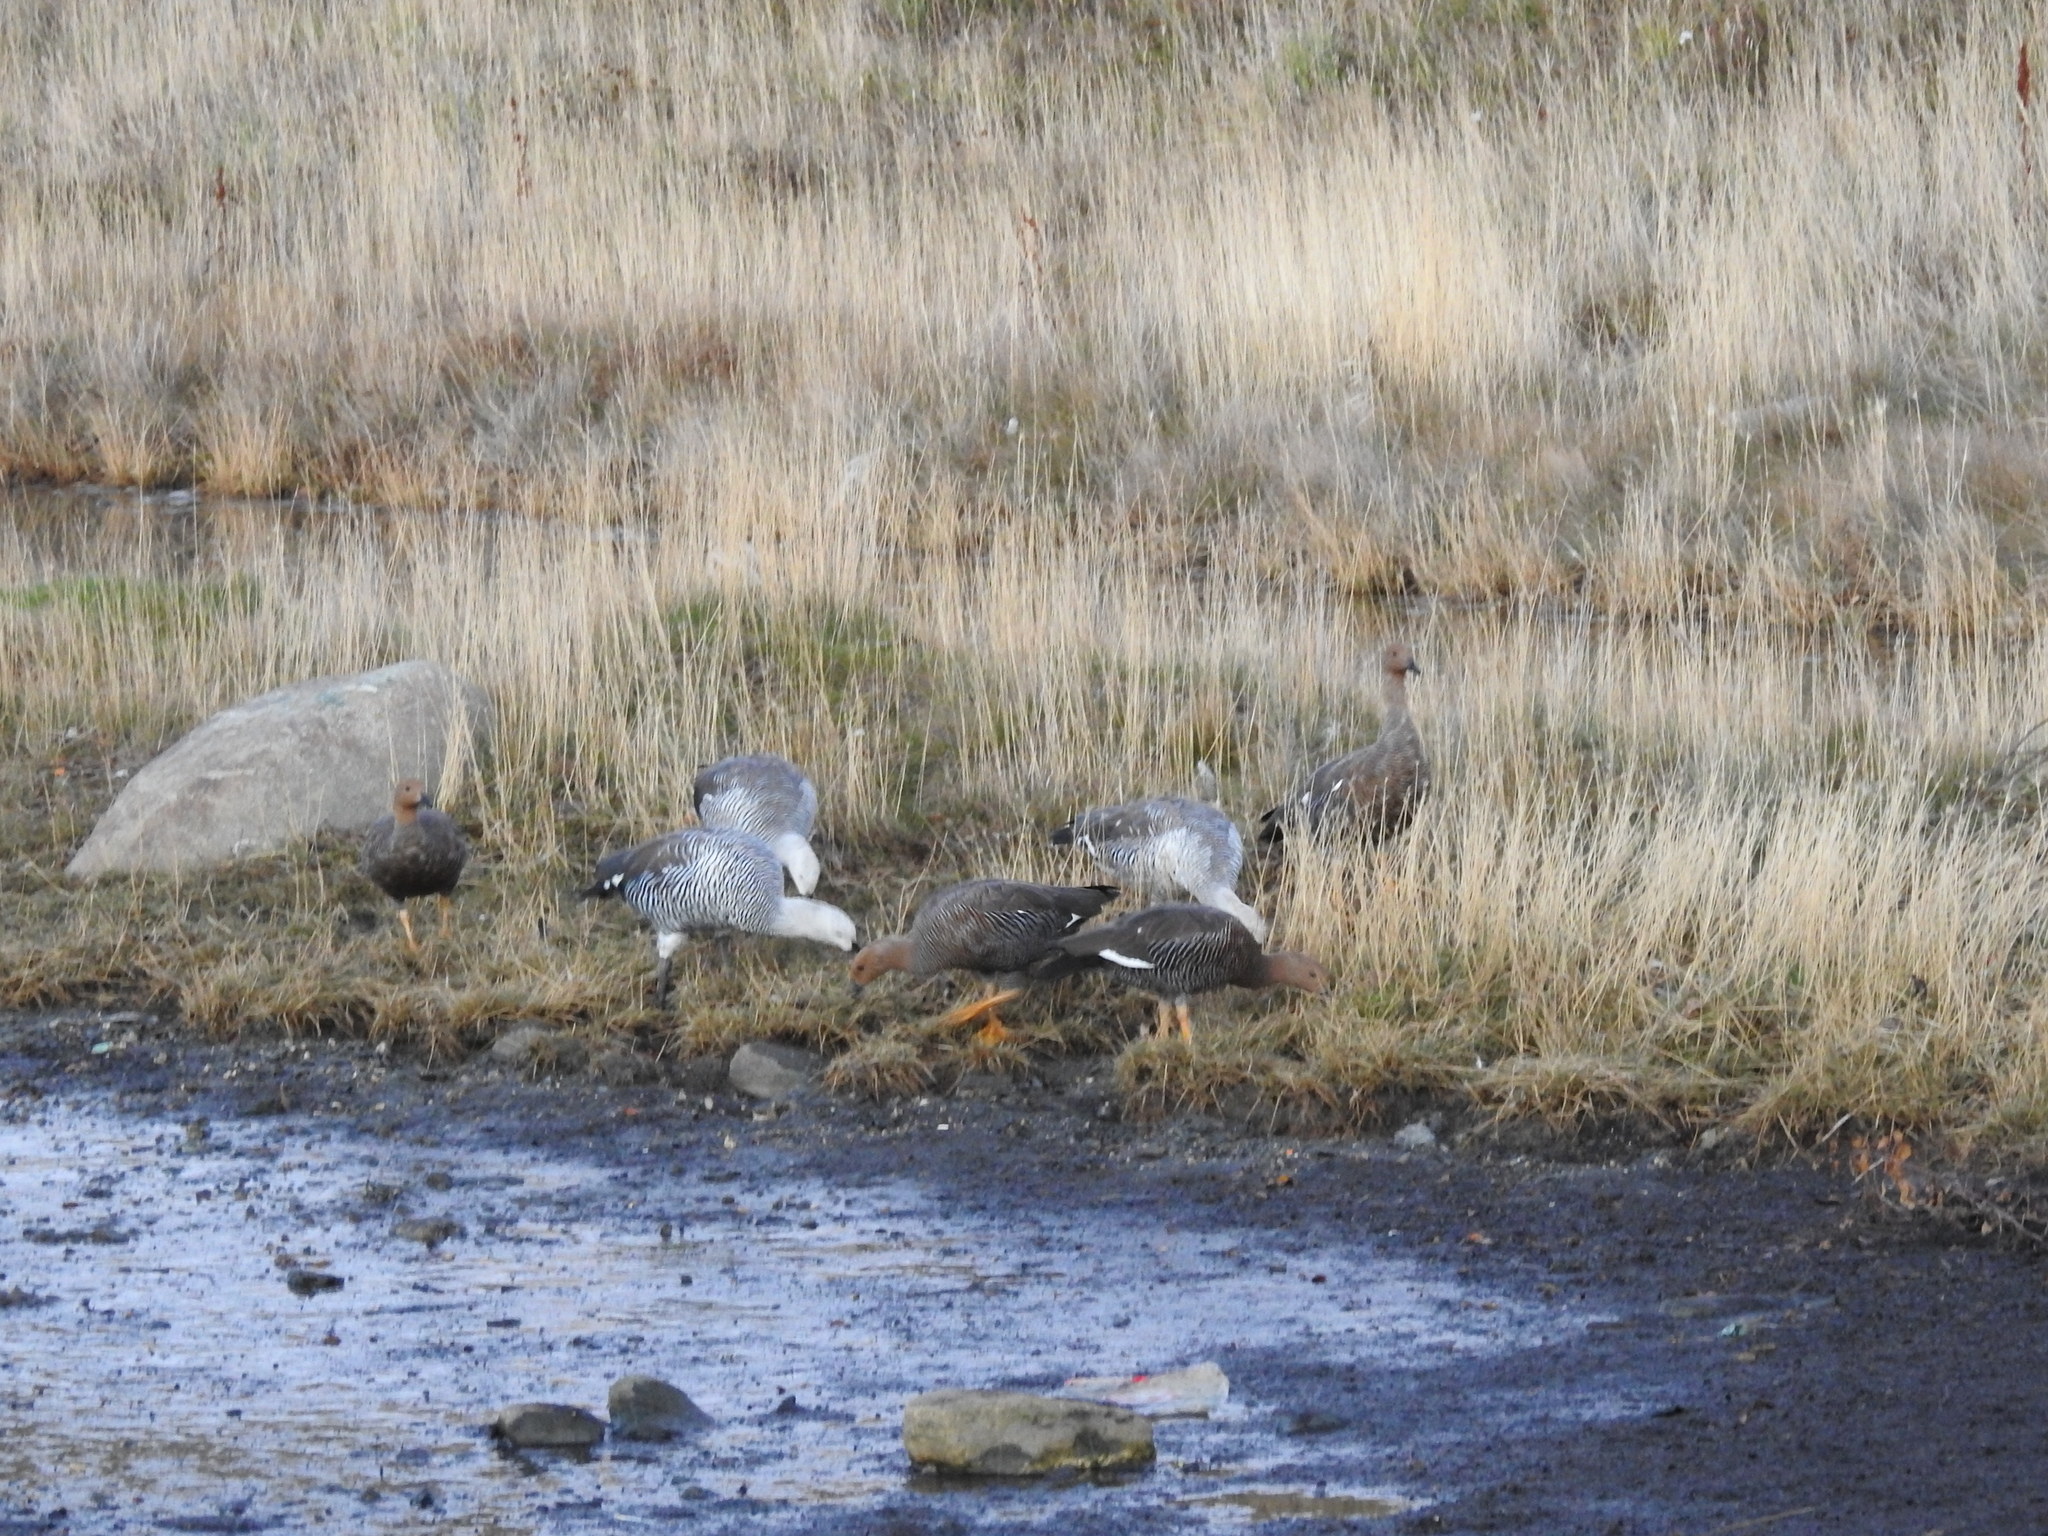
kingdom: Animalia
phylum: Chordata
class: Aves
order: Anseriformes
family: Anatidae
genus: Chloephaga
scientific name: Chloephaga picta
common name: Upland goose
